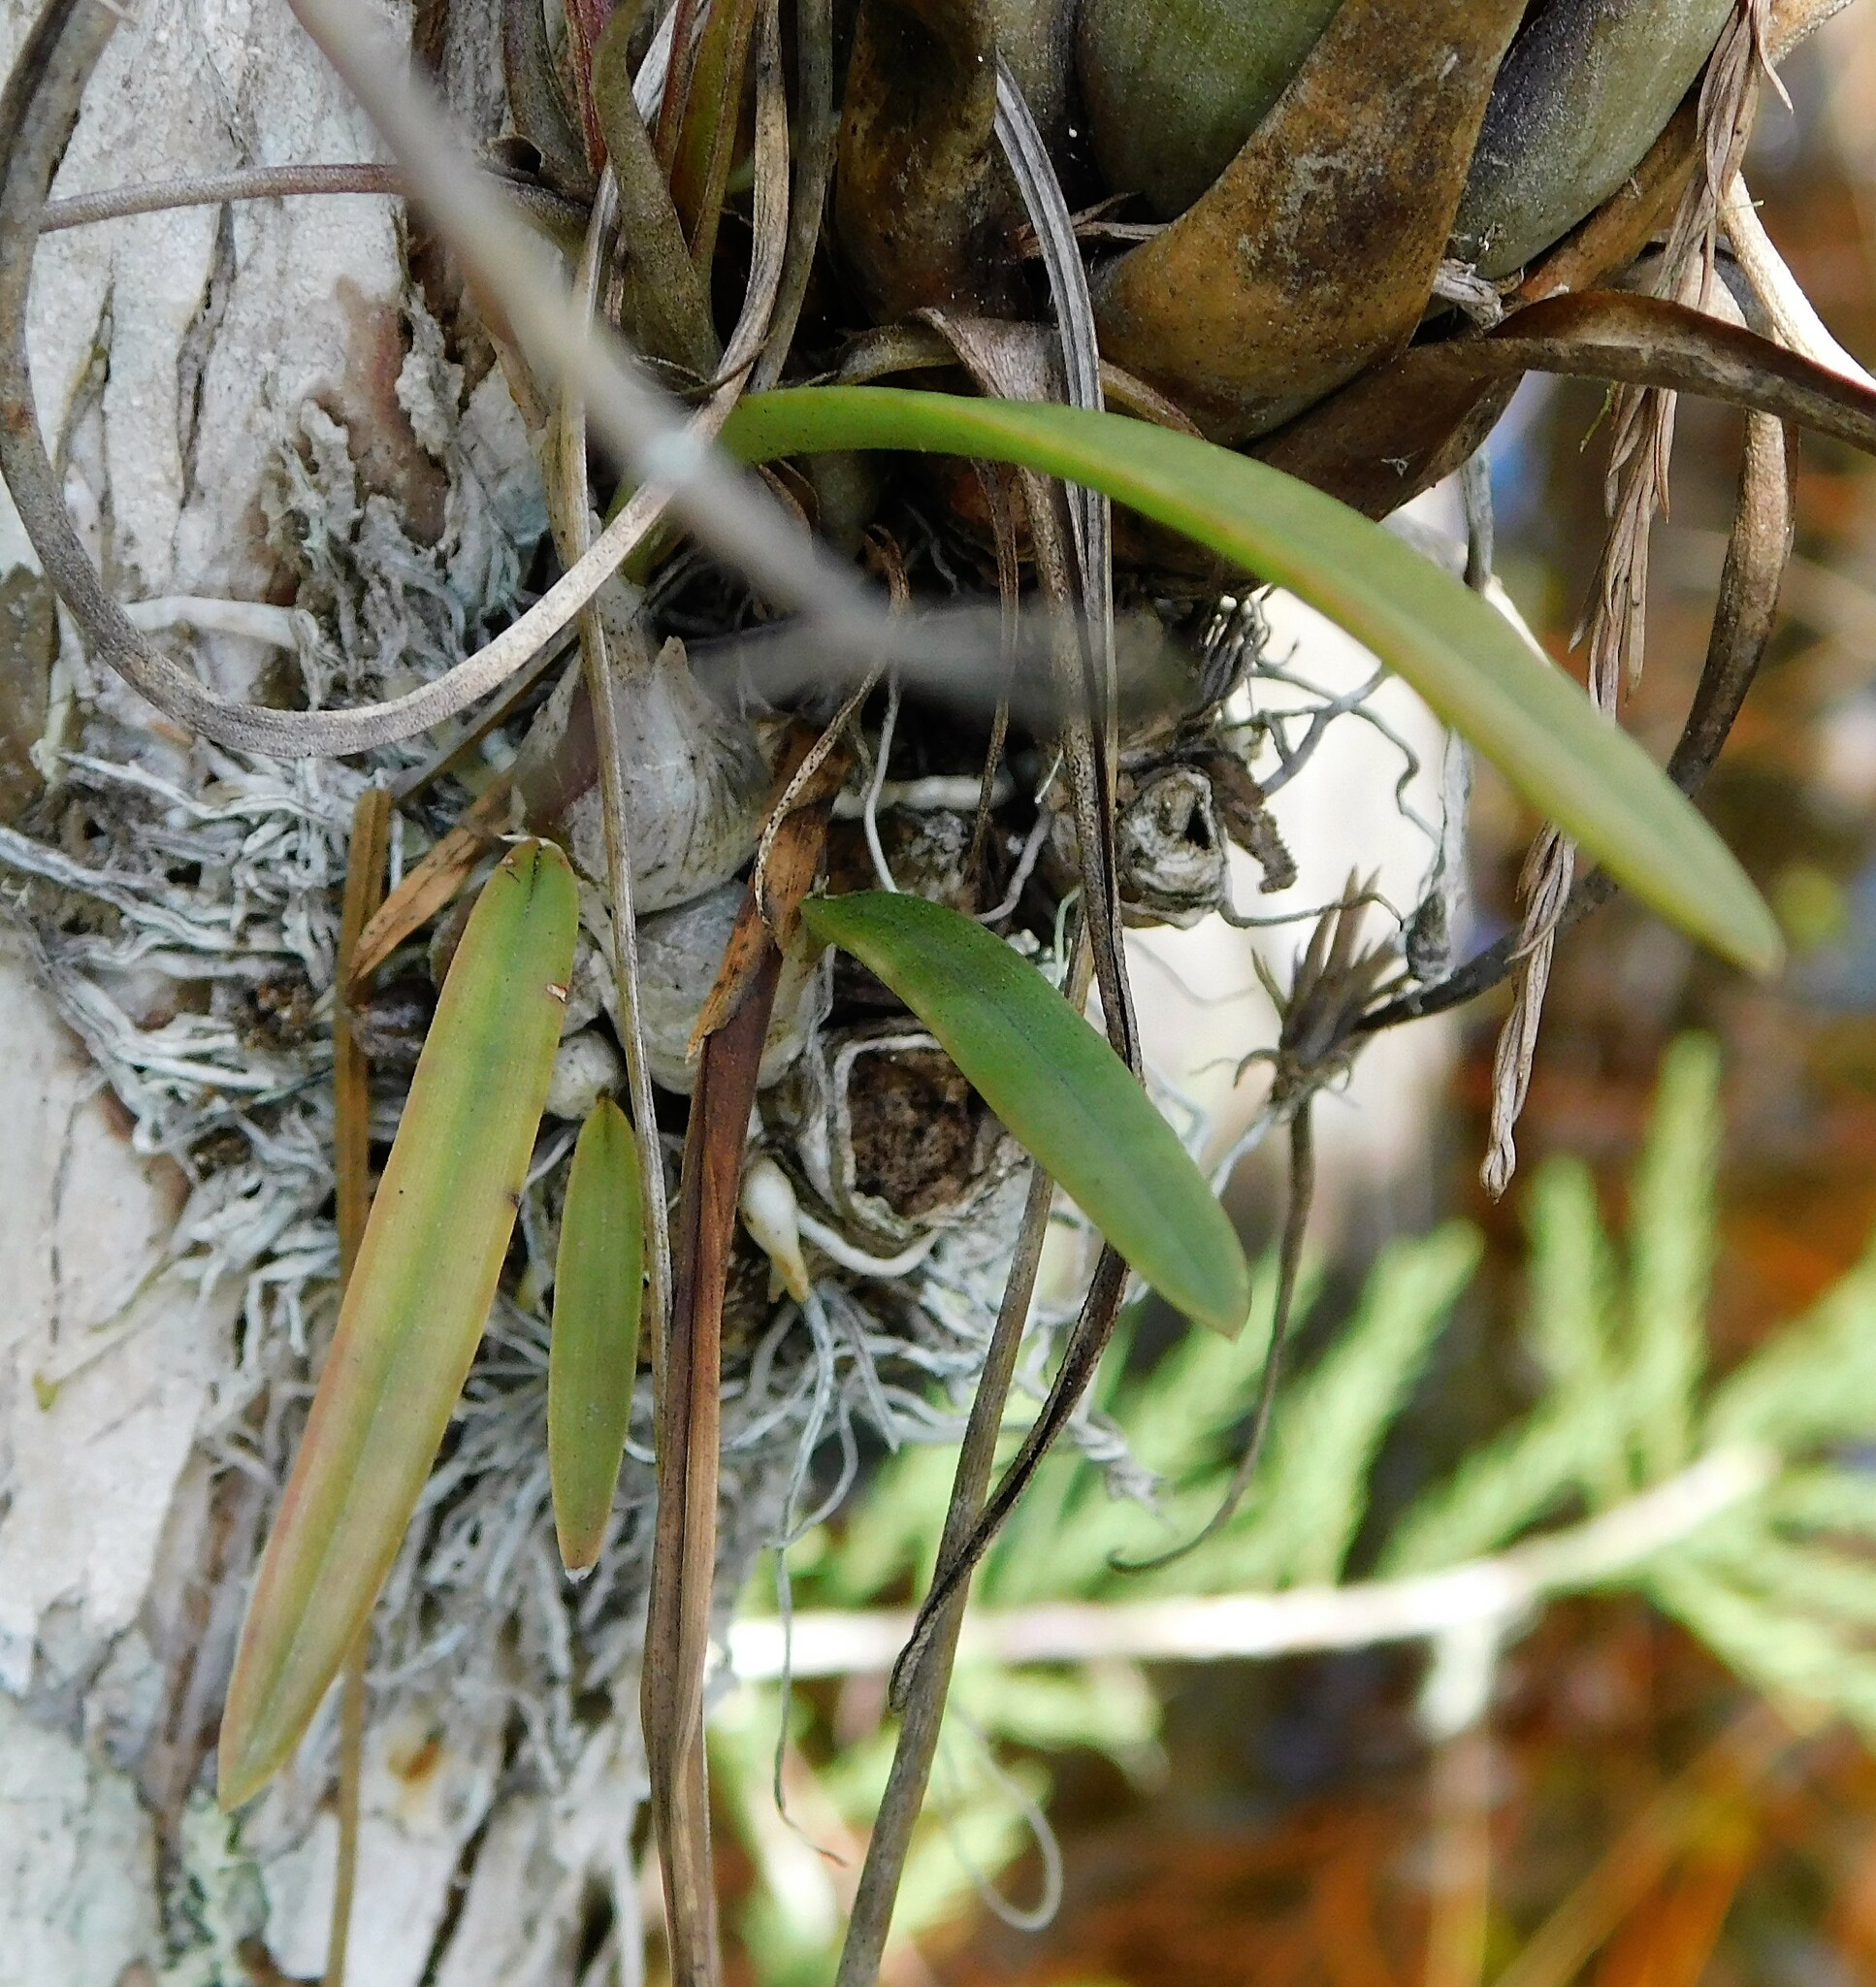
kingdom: Plantae
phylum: Tracheophyta
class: Liliopsida
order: Asparagales
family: Orchidaceae
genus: Encyclia
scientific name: Encyclia tampensis
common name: Florida butterfly orchid
